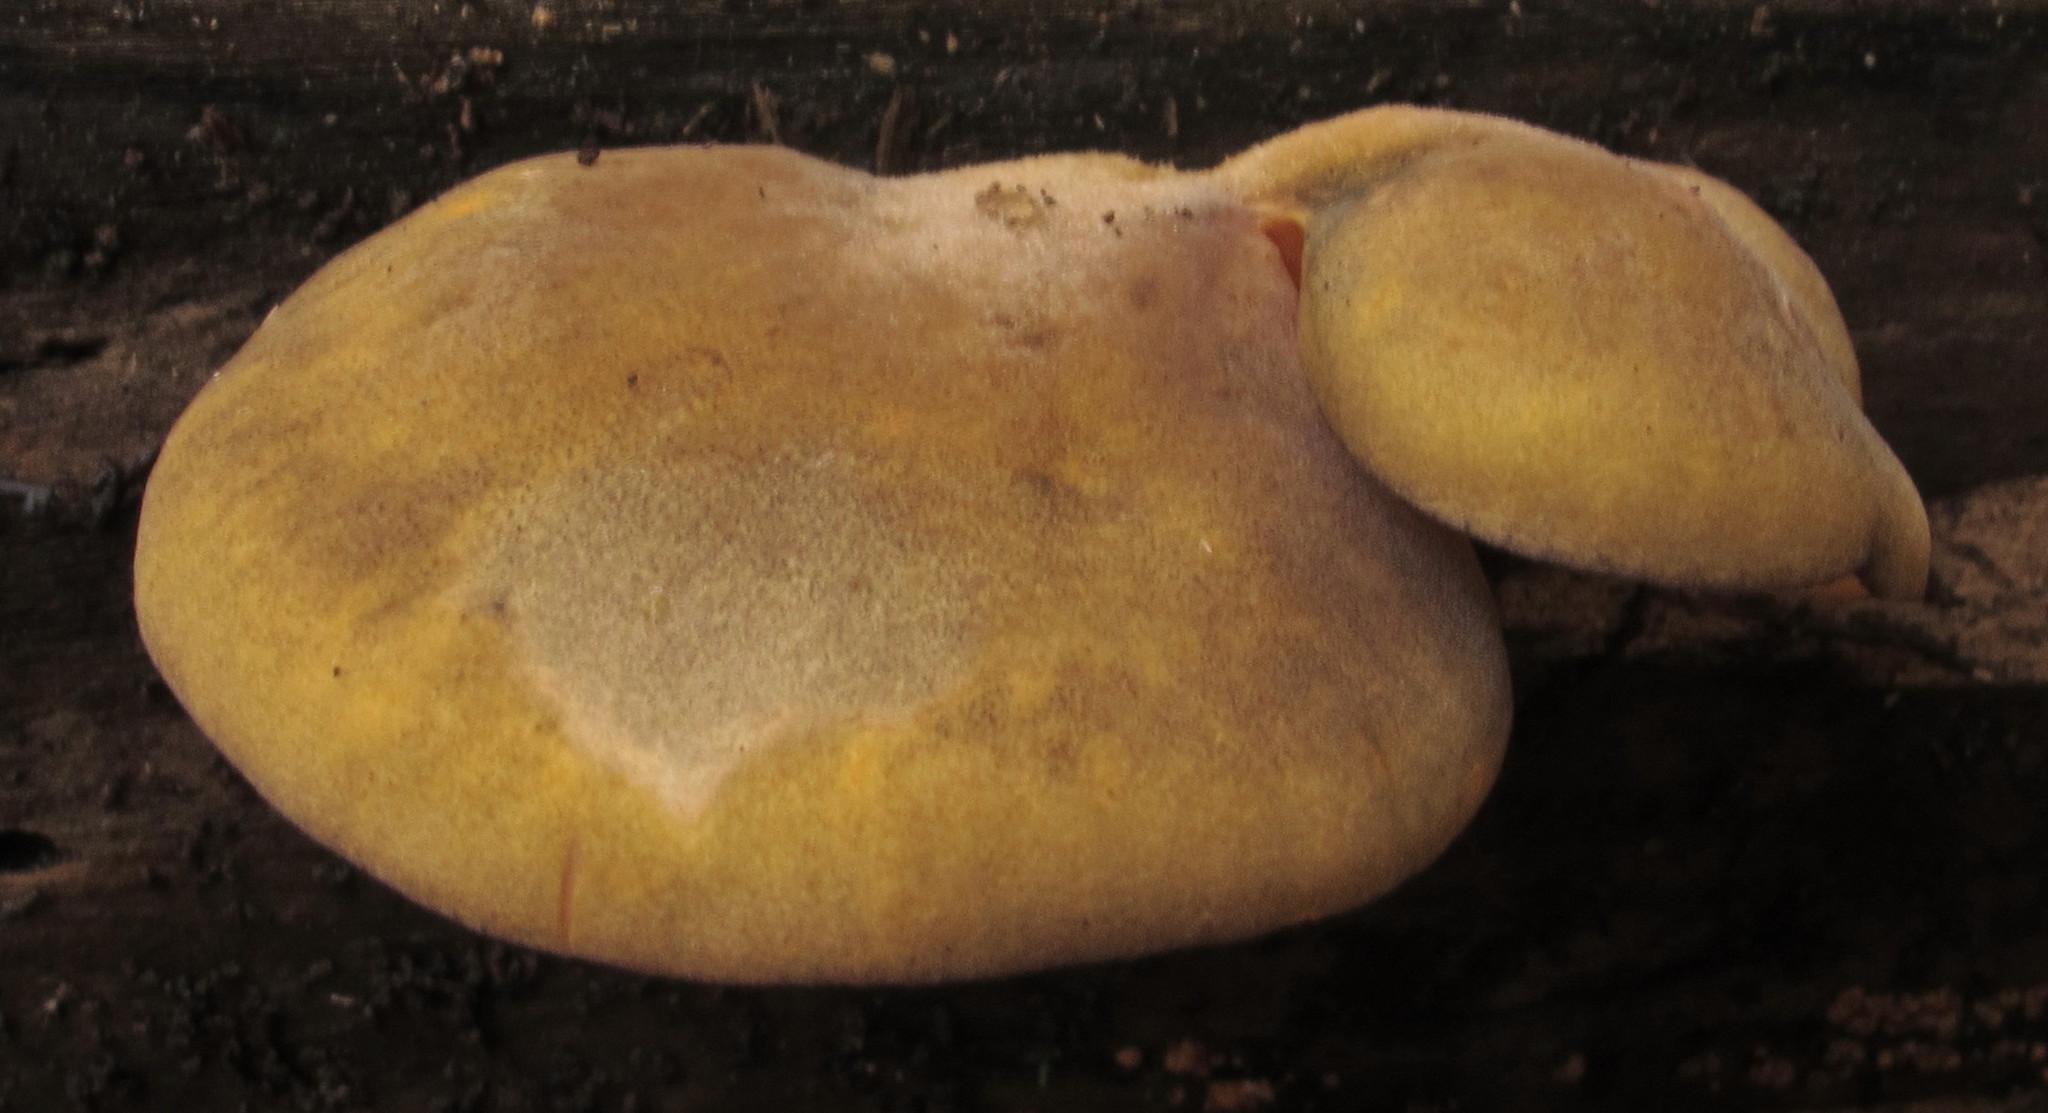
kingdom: Fungi
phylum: Basidiomycota
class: Agaricomycetes
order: Agaricales
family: Sarcomyxaceae
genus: Sarcomyxa
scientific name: Sarcomyxa serotina
